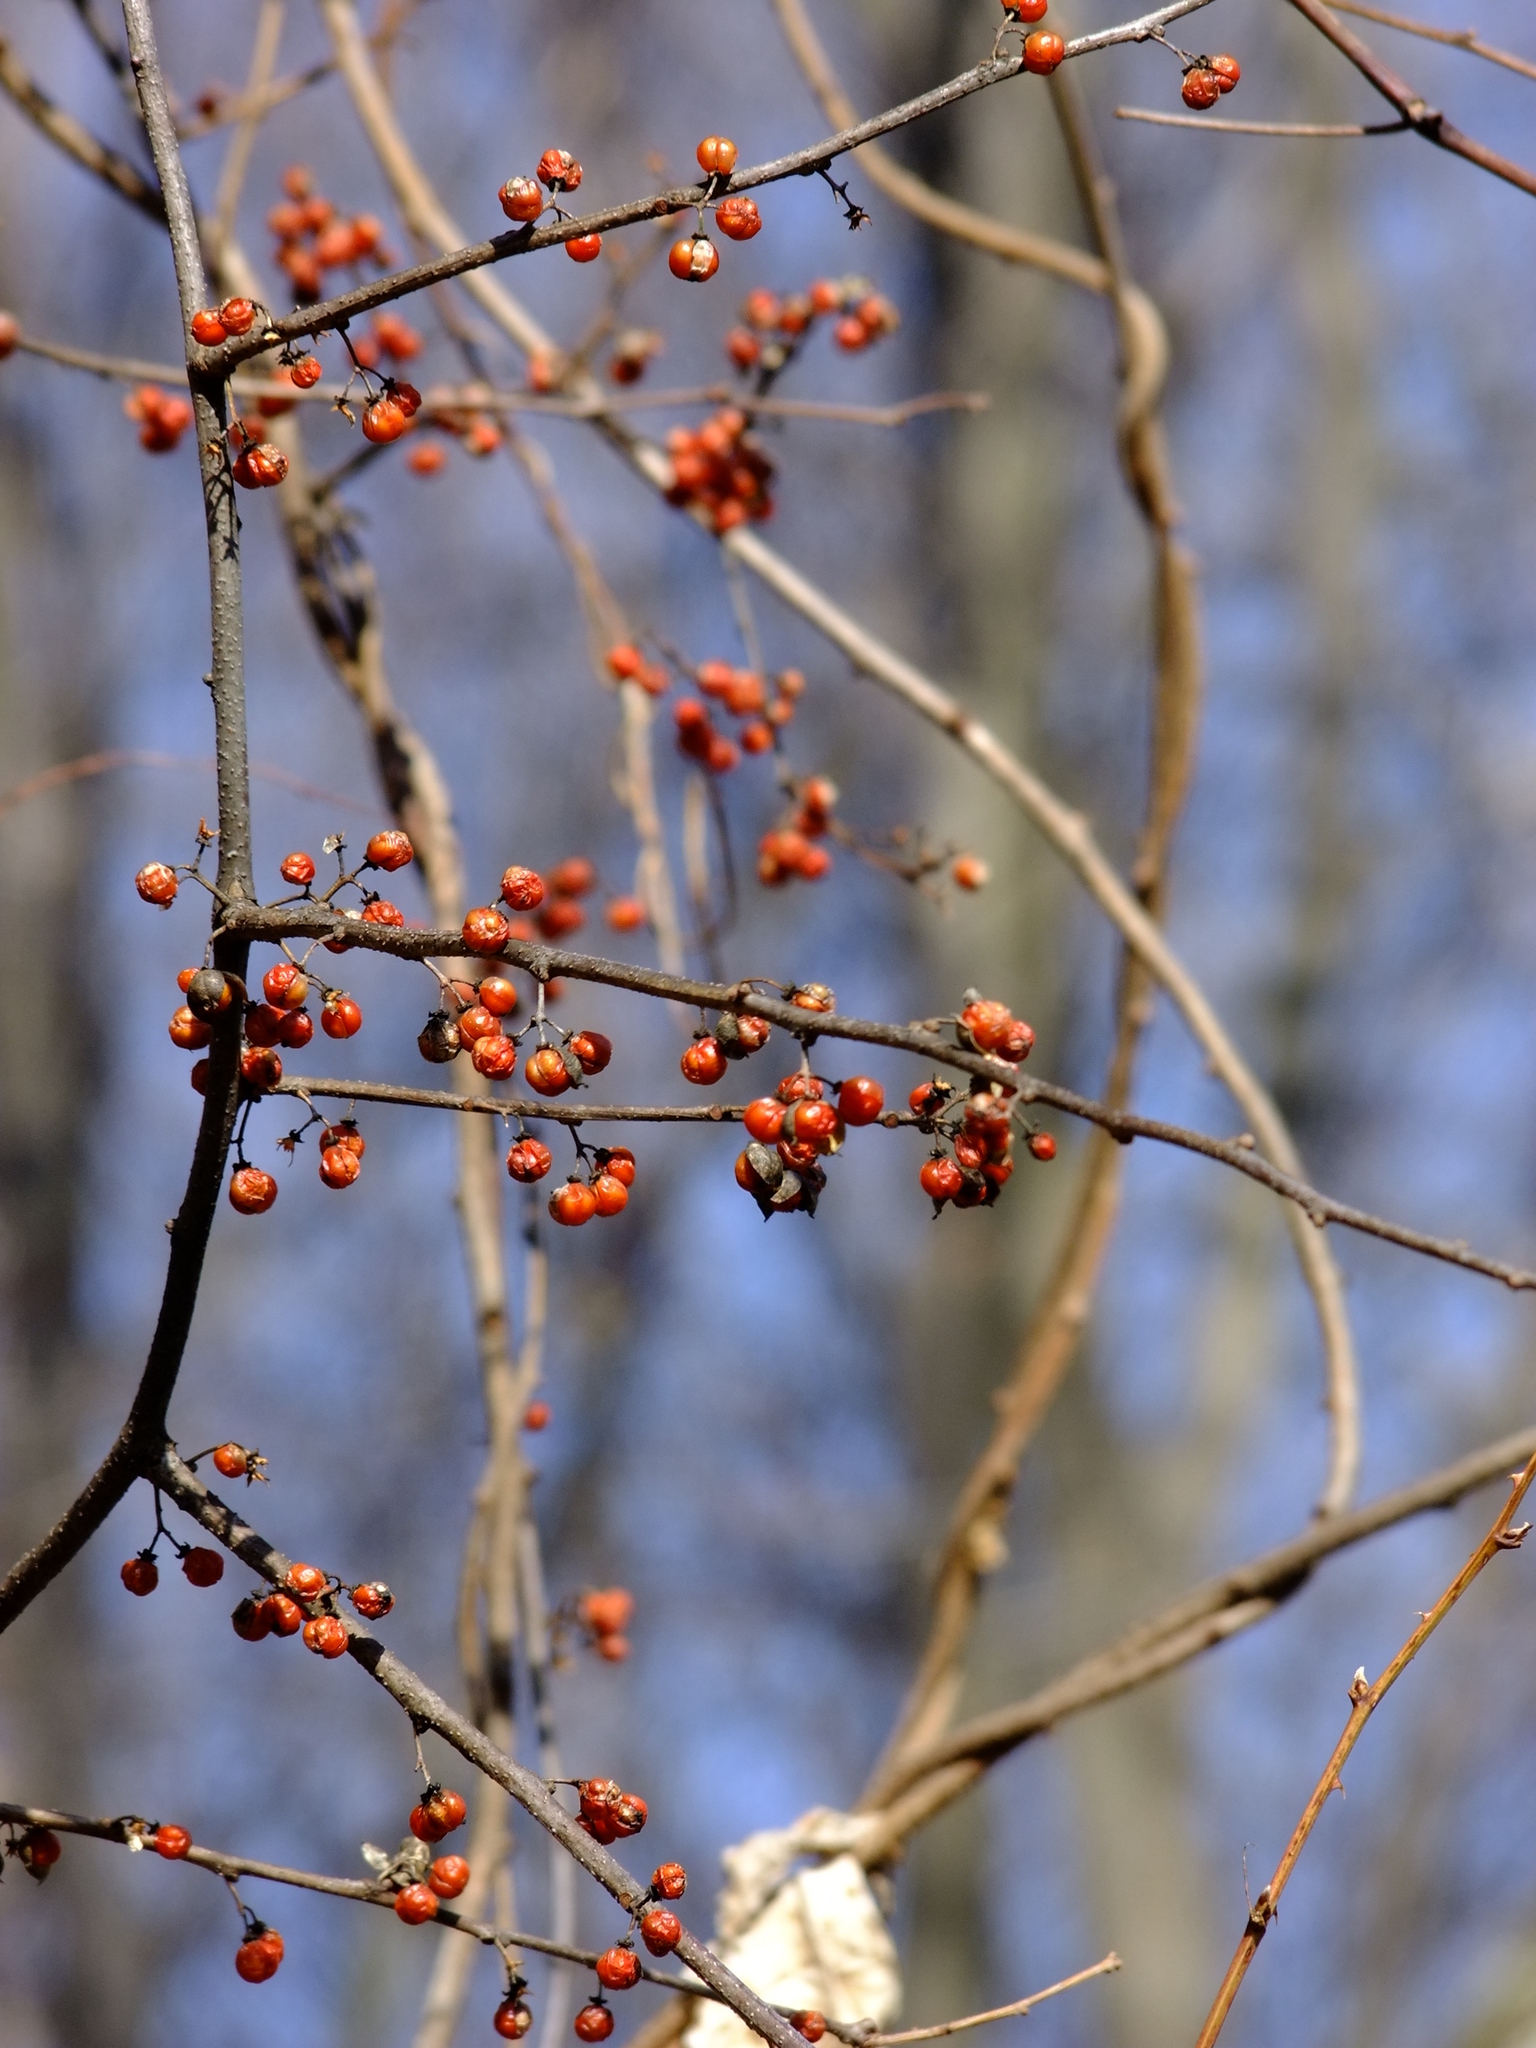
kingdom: Plantae
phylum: Tracheophyta
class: Magnoliopsida
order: Celastrales
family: Celastraceae
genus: Celastrus
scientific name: Celastrus orbiculatus
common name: Oriental bittersweet
